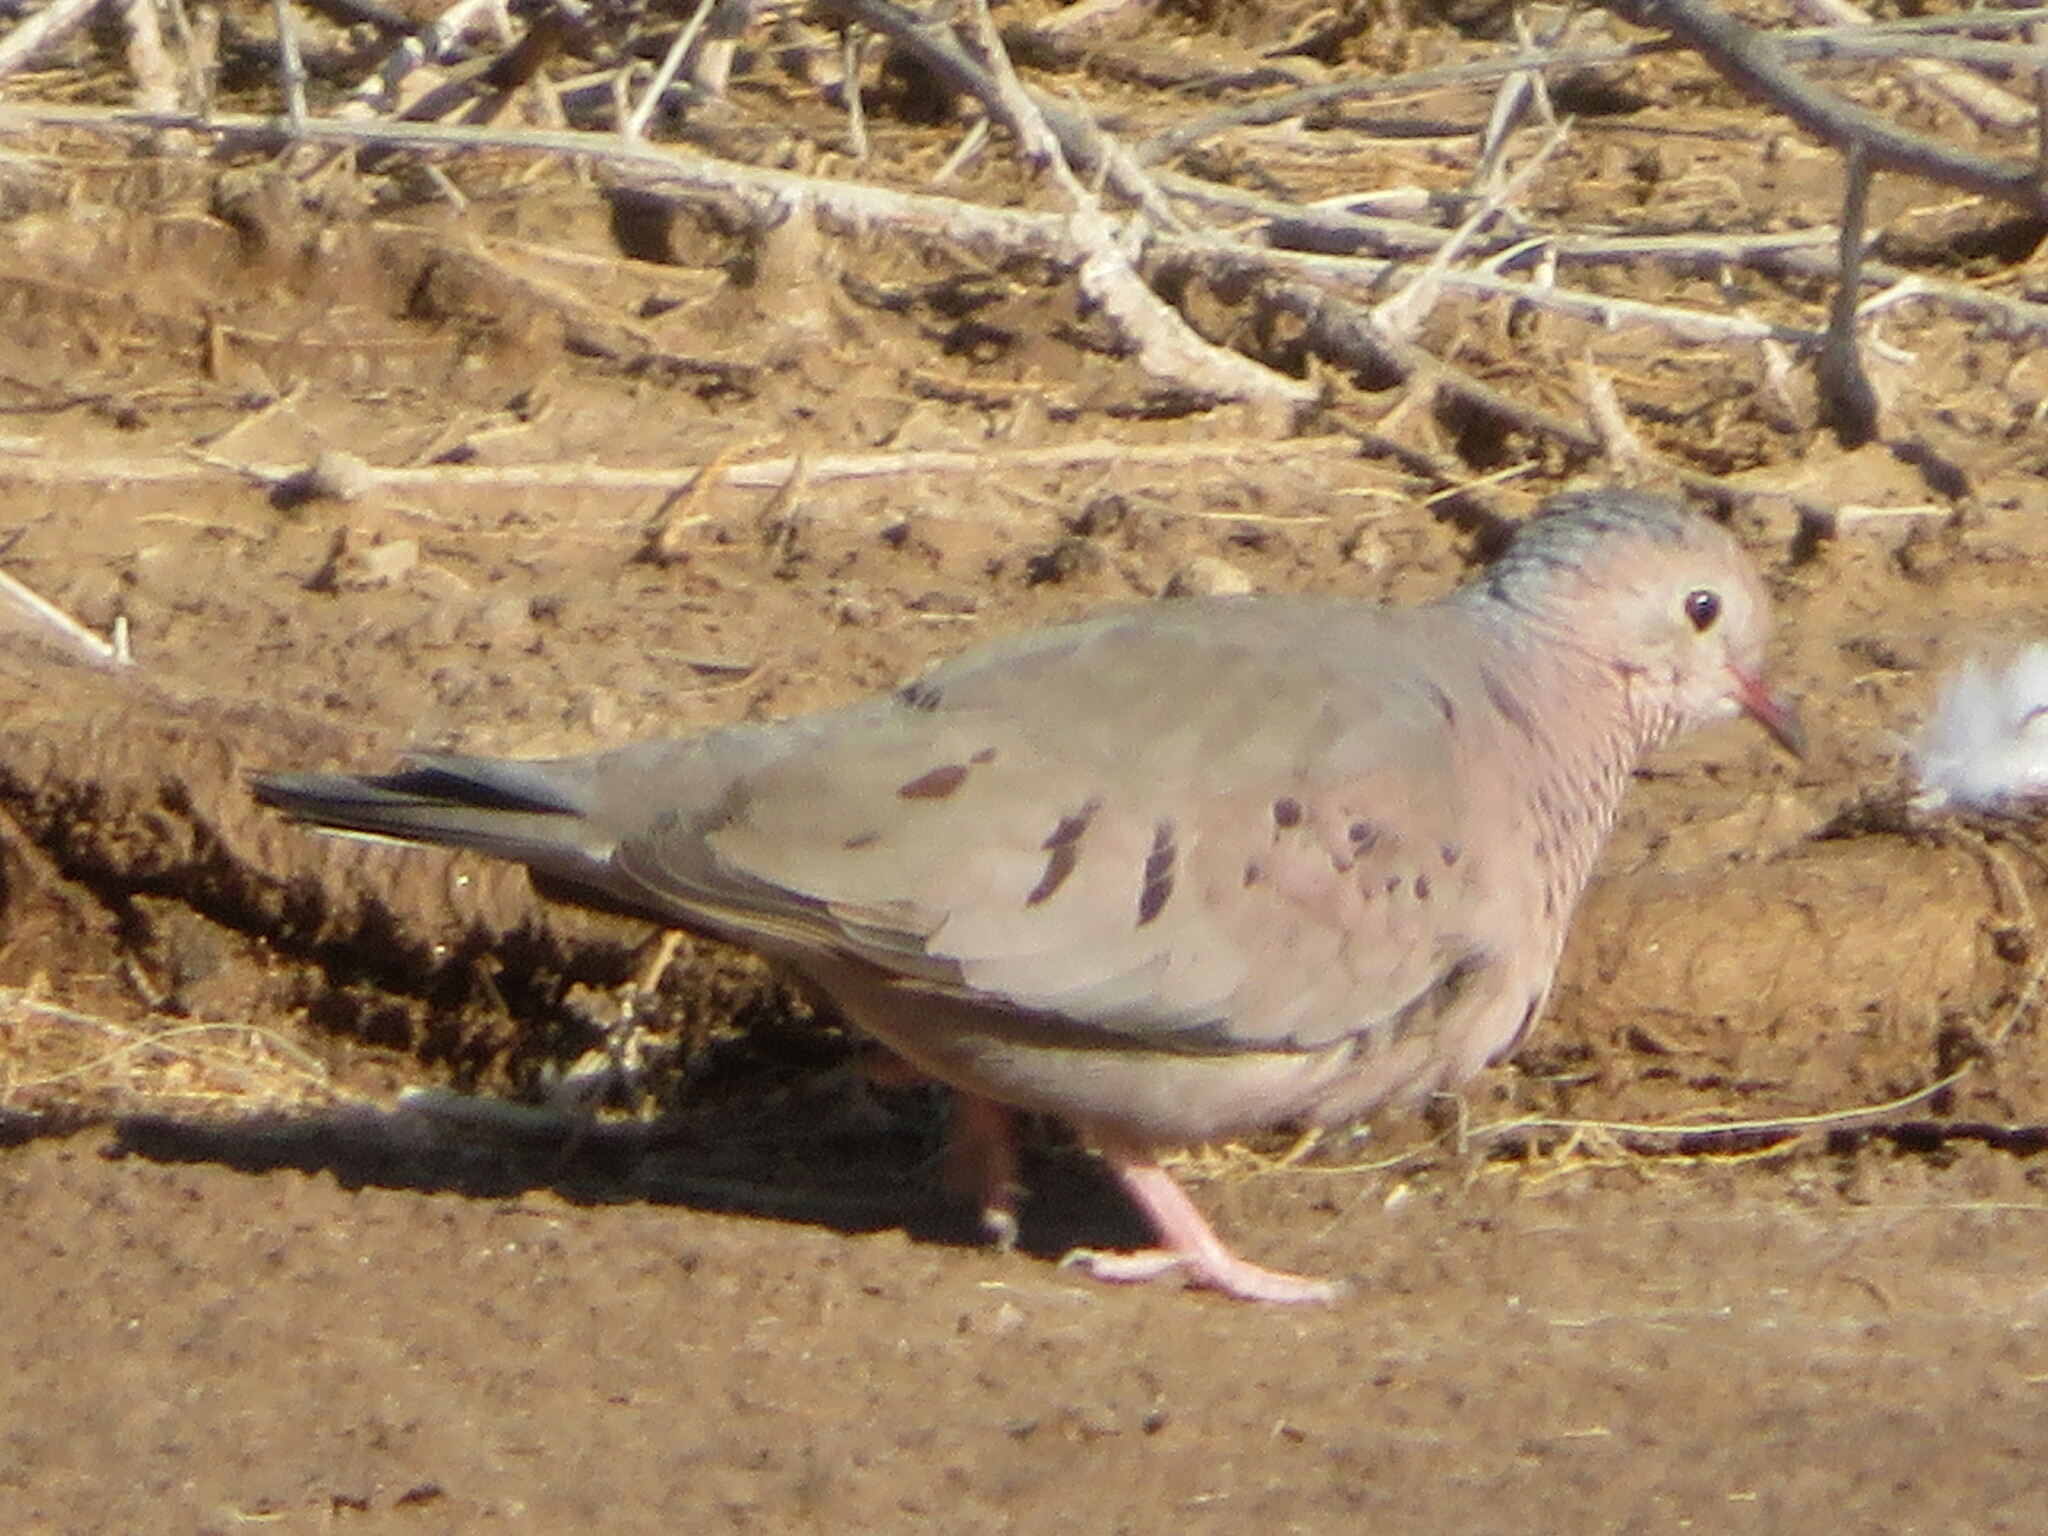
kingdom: Animalia
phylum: Chordata
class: Aves
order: Columbiformes
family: Columbidae
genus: Columbina
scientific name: Columbina passerina
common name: Common ground-dove
